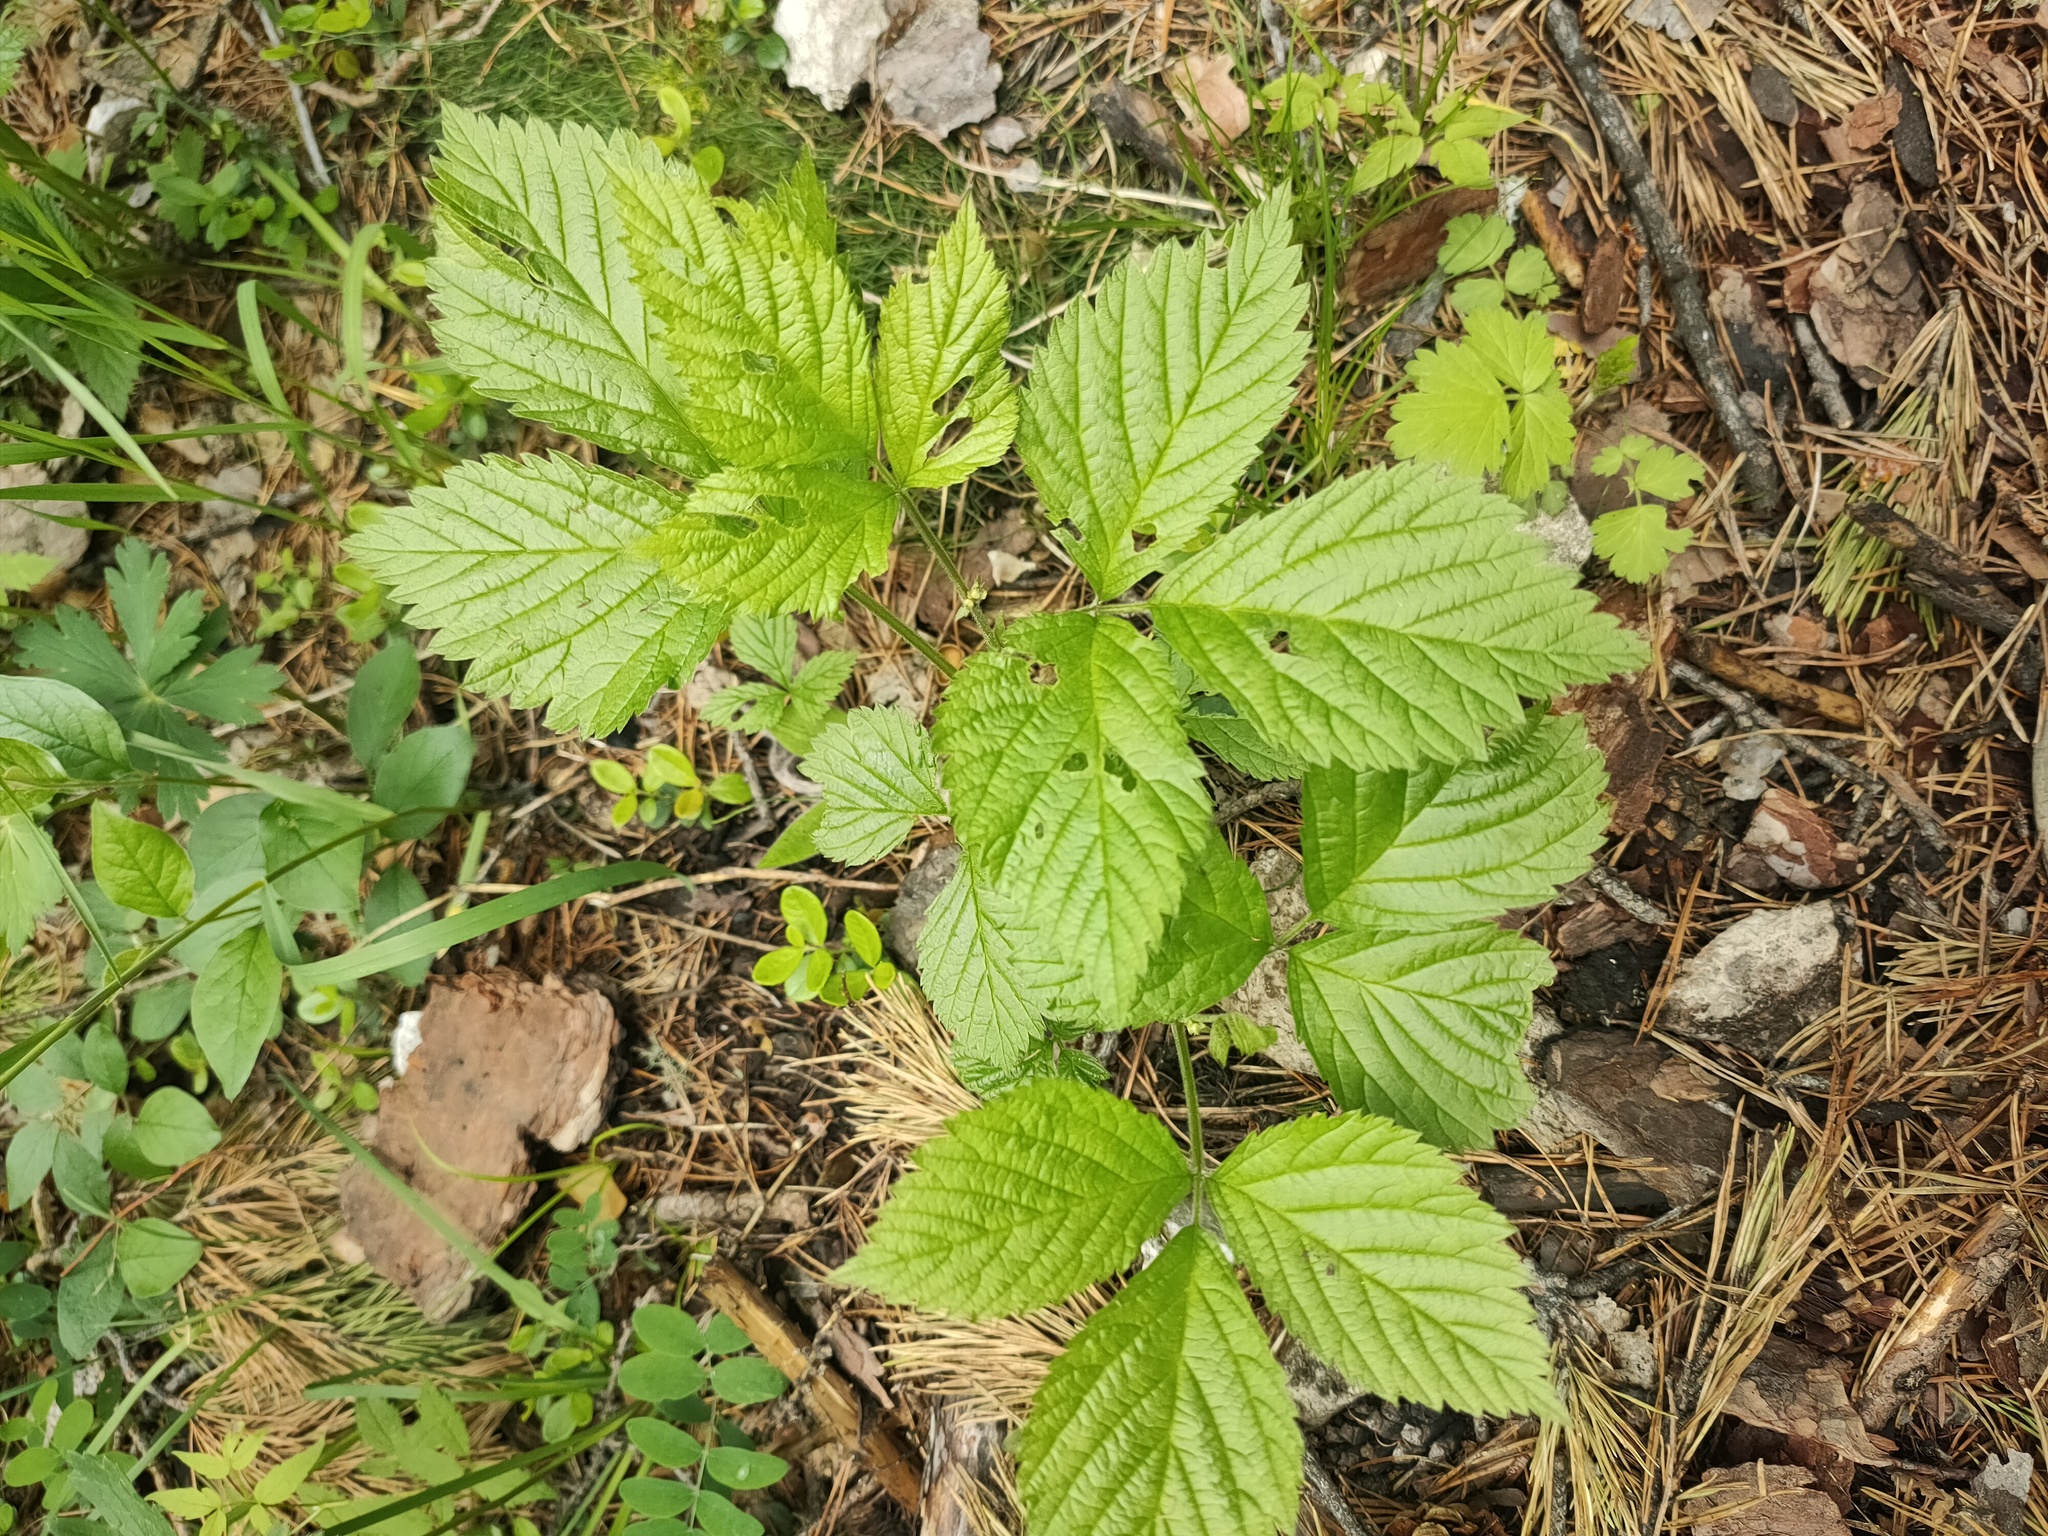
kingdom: Plantae
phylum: Tracheophyta
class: Magnoliopsida
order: Rosales
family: Rosaceae
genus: Rubus
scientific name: Rubus saxatilis
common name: Stone bramble
